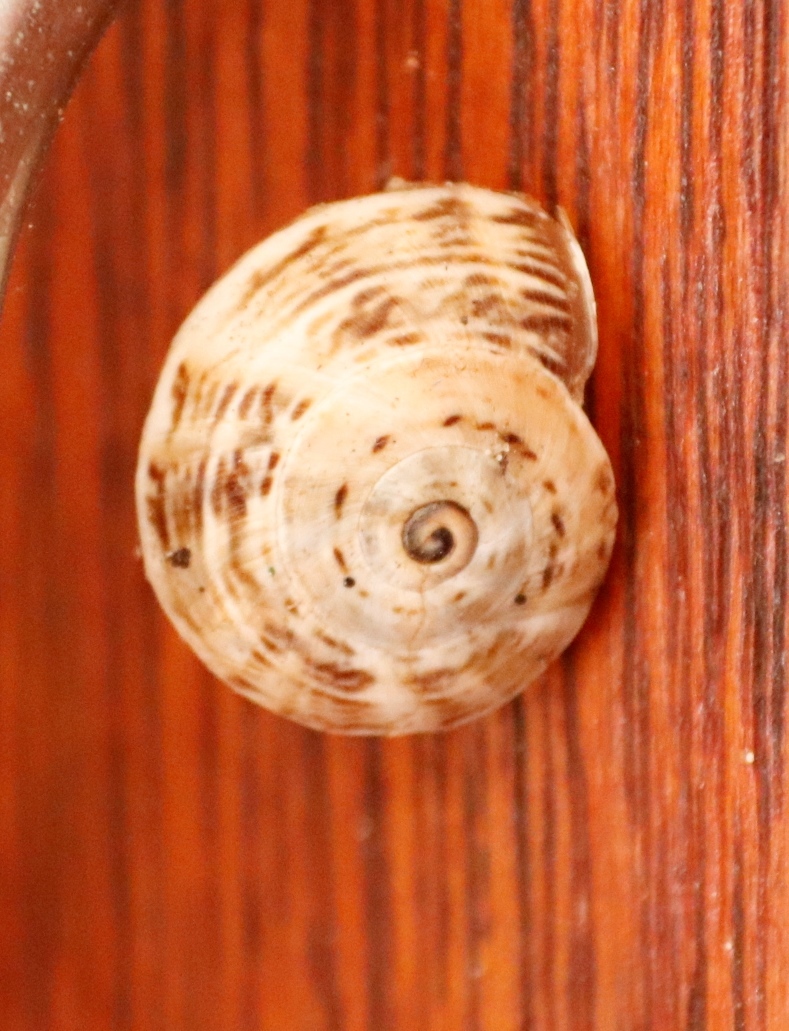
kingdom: Animalia
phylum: Mollusca
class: Gastropoda
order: Stylommatophora
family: Helicidae
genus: Theba
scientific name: Theba pisana
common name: White snail
